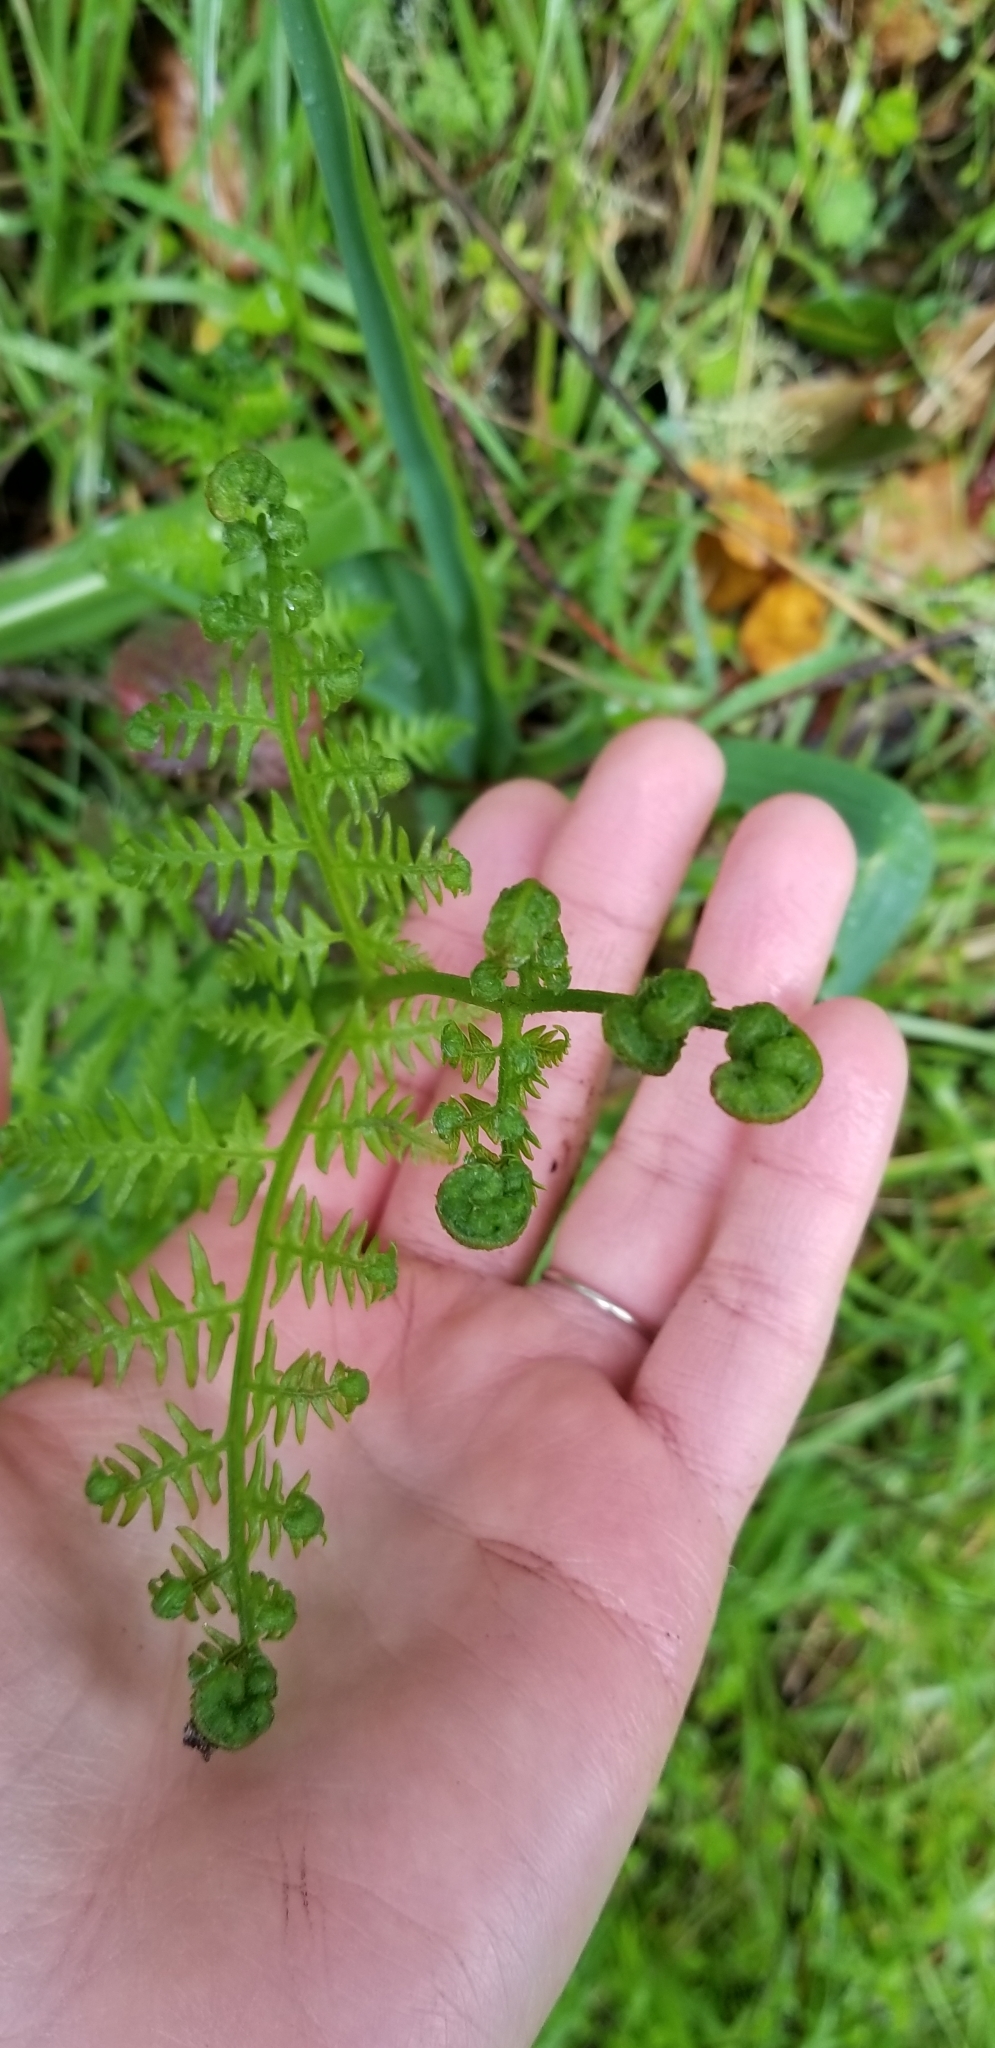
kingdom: Plantae
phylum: Tracheophyta
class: Polypodiopsida
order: Polypodiales
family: Dennstaedtiaceae
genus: Pteridium
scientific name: Pteridium aquilinum
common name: Bracken
